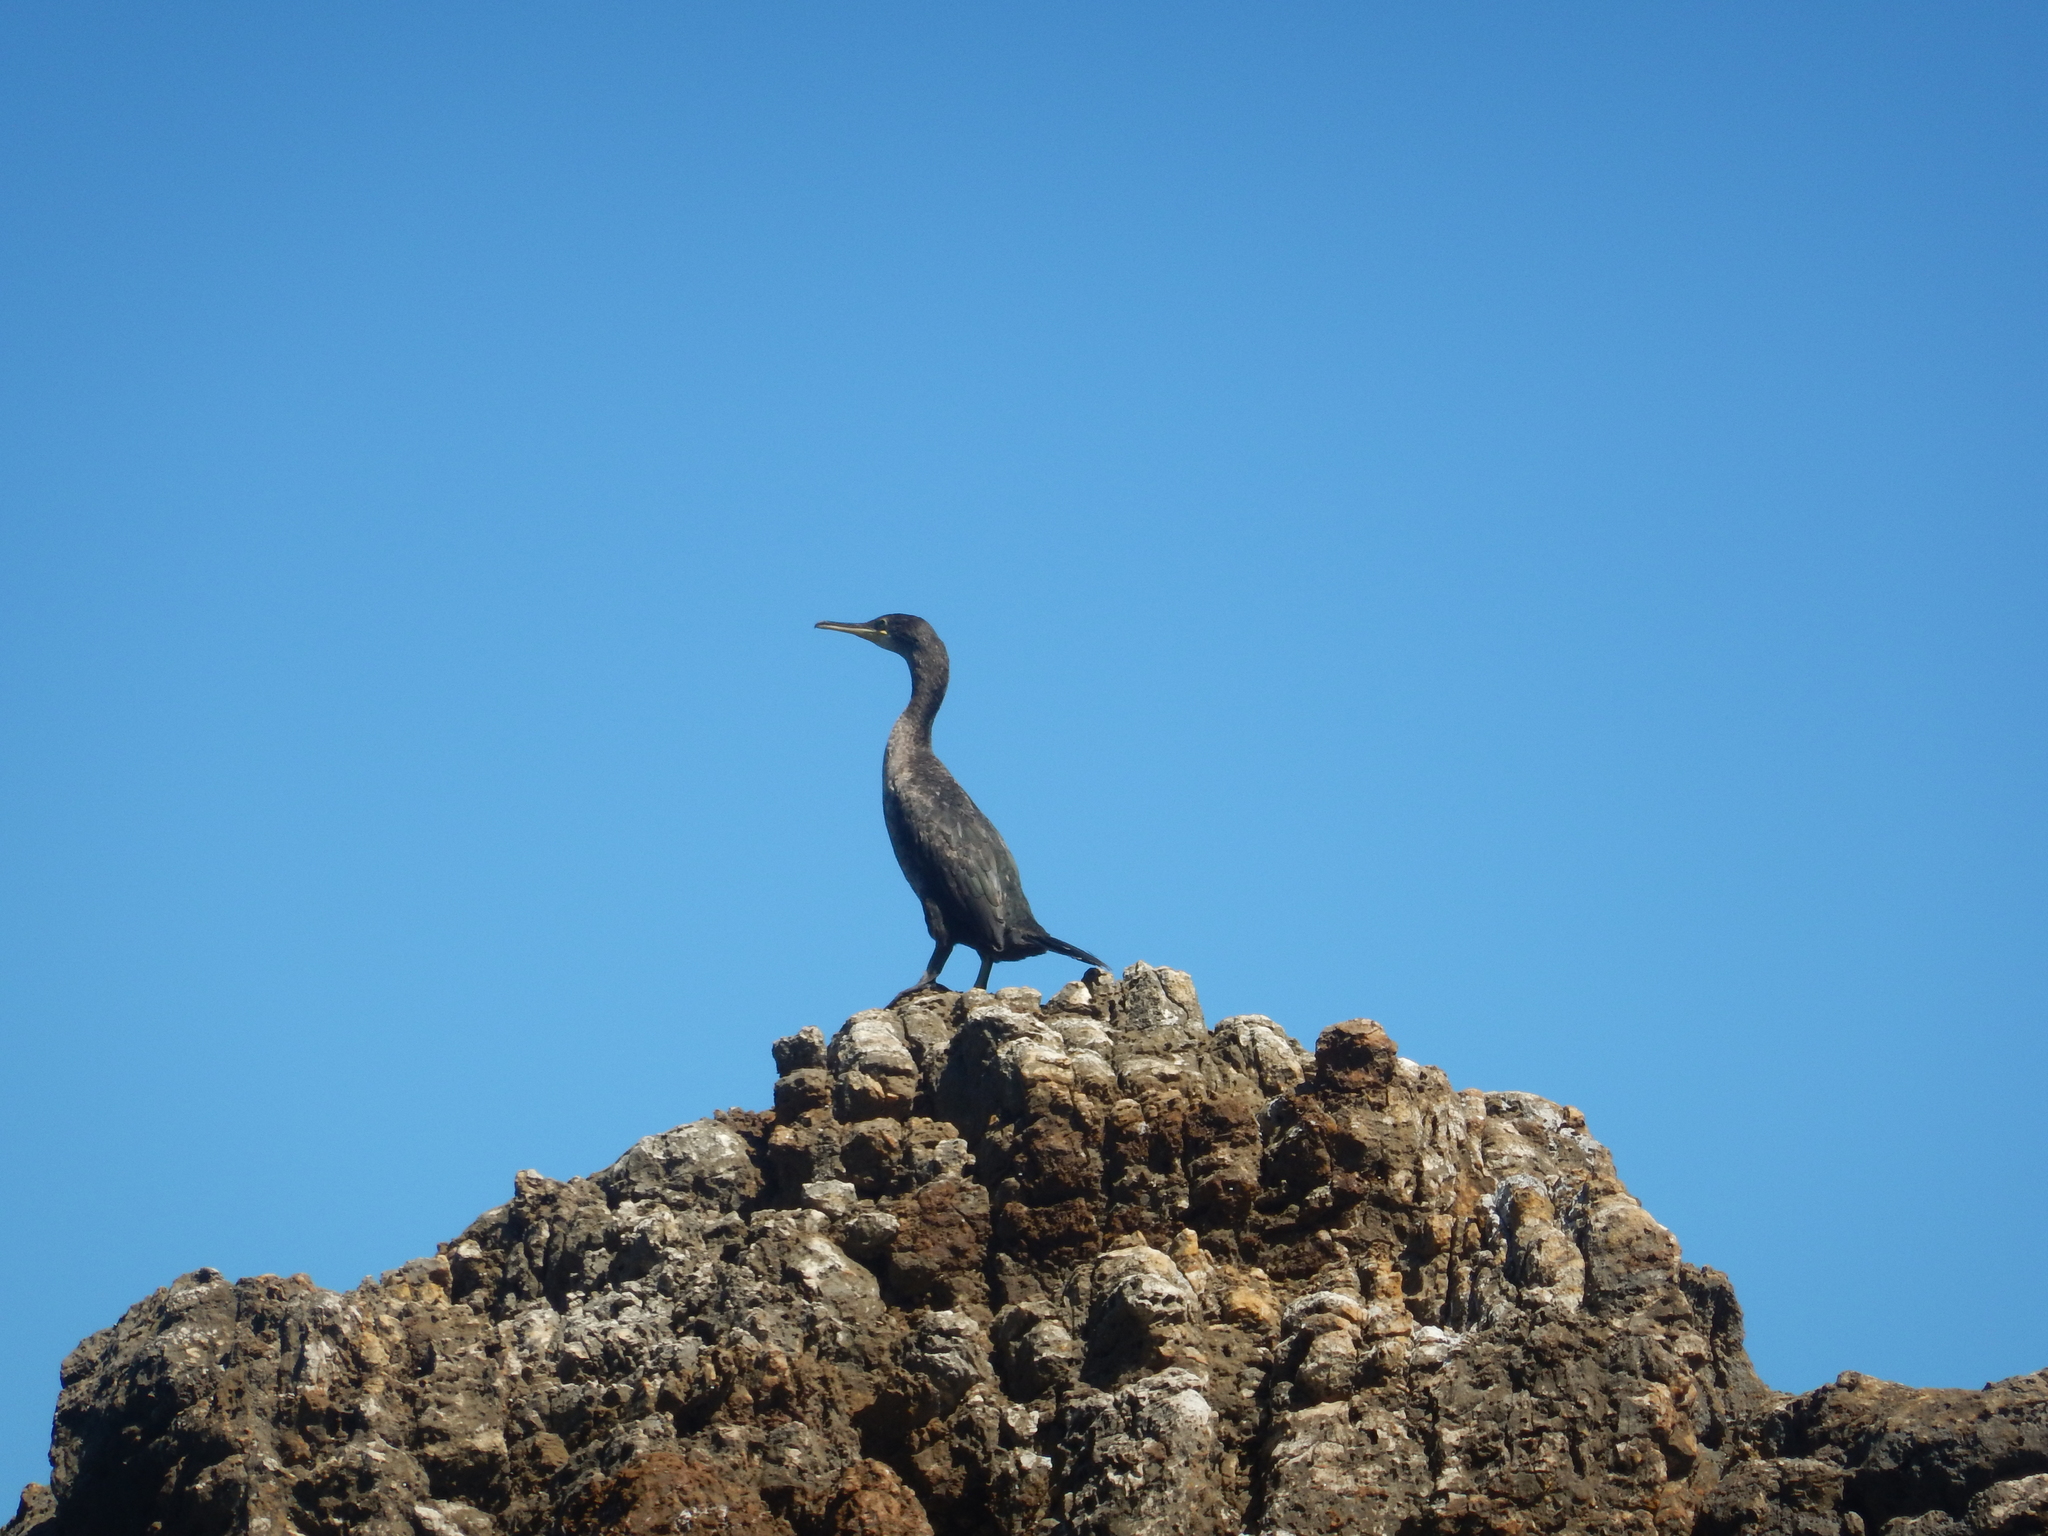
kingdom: Animalia
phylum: Chordata
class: Aves
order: Suliformes
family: Phalacrocoracidae
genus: Phalacrocorax
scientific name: Phalacrocorax aristotelis
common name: European shag
